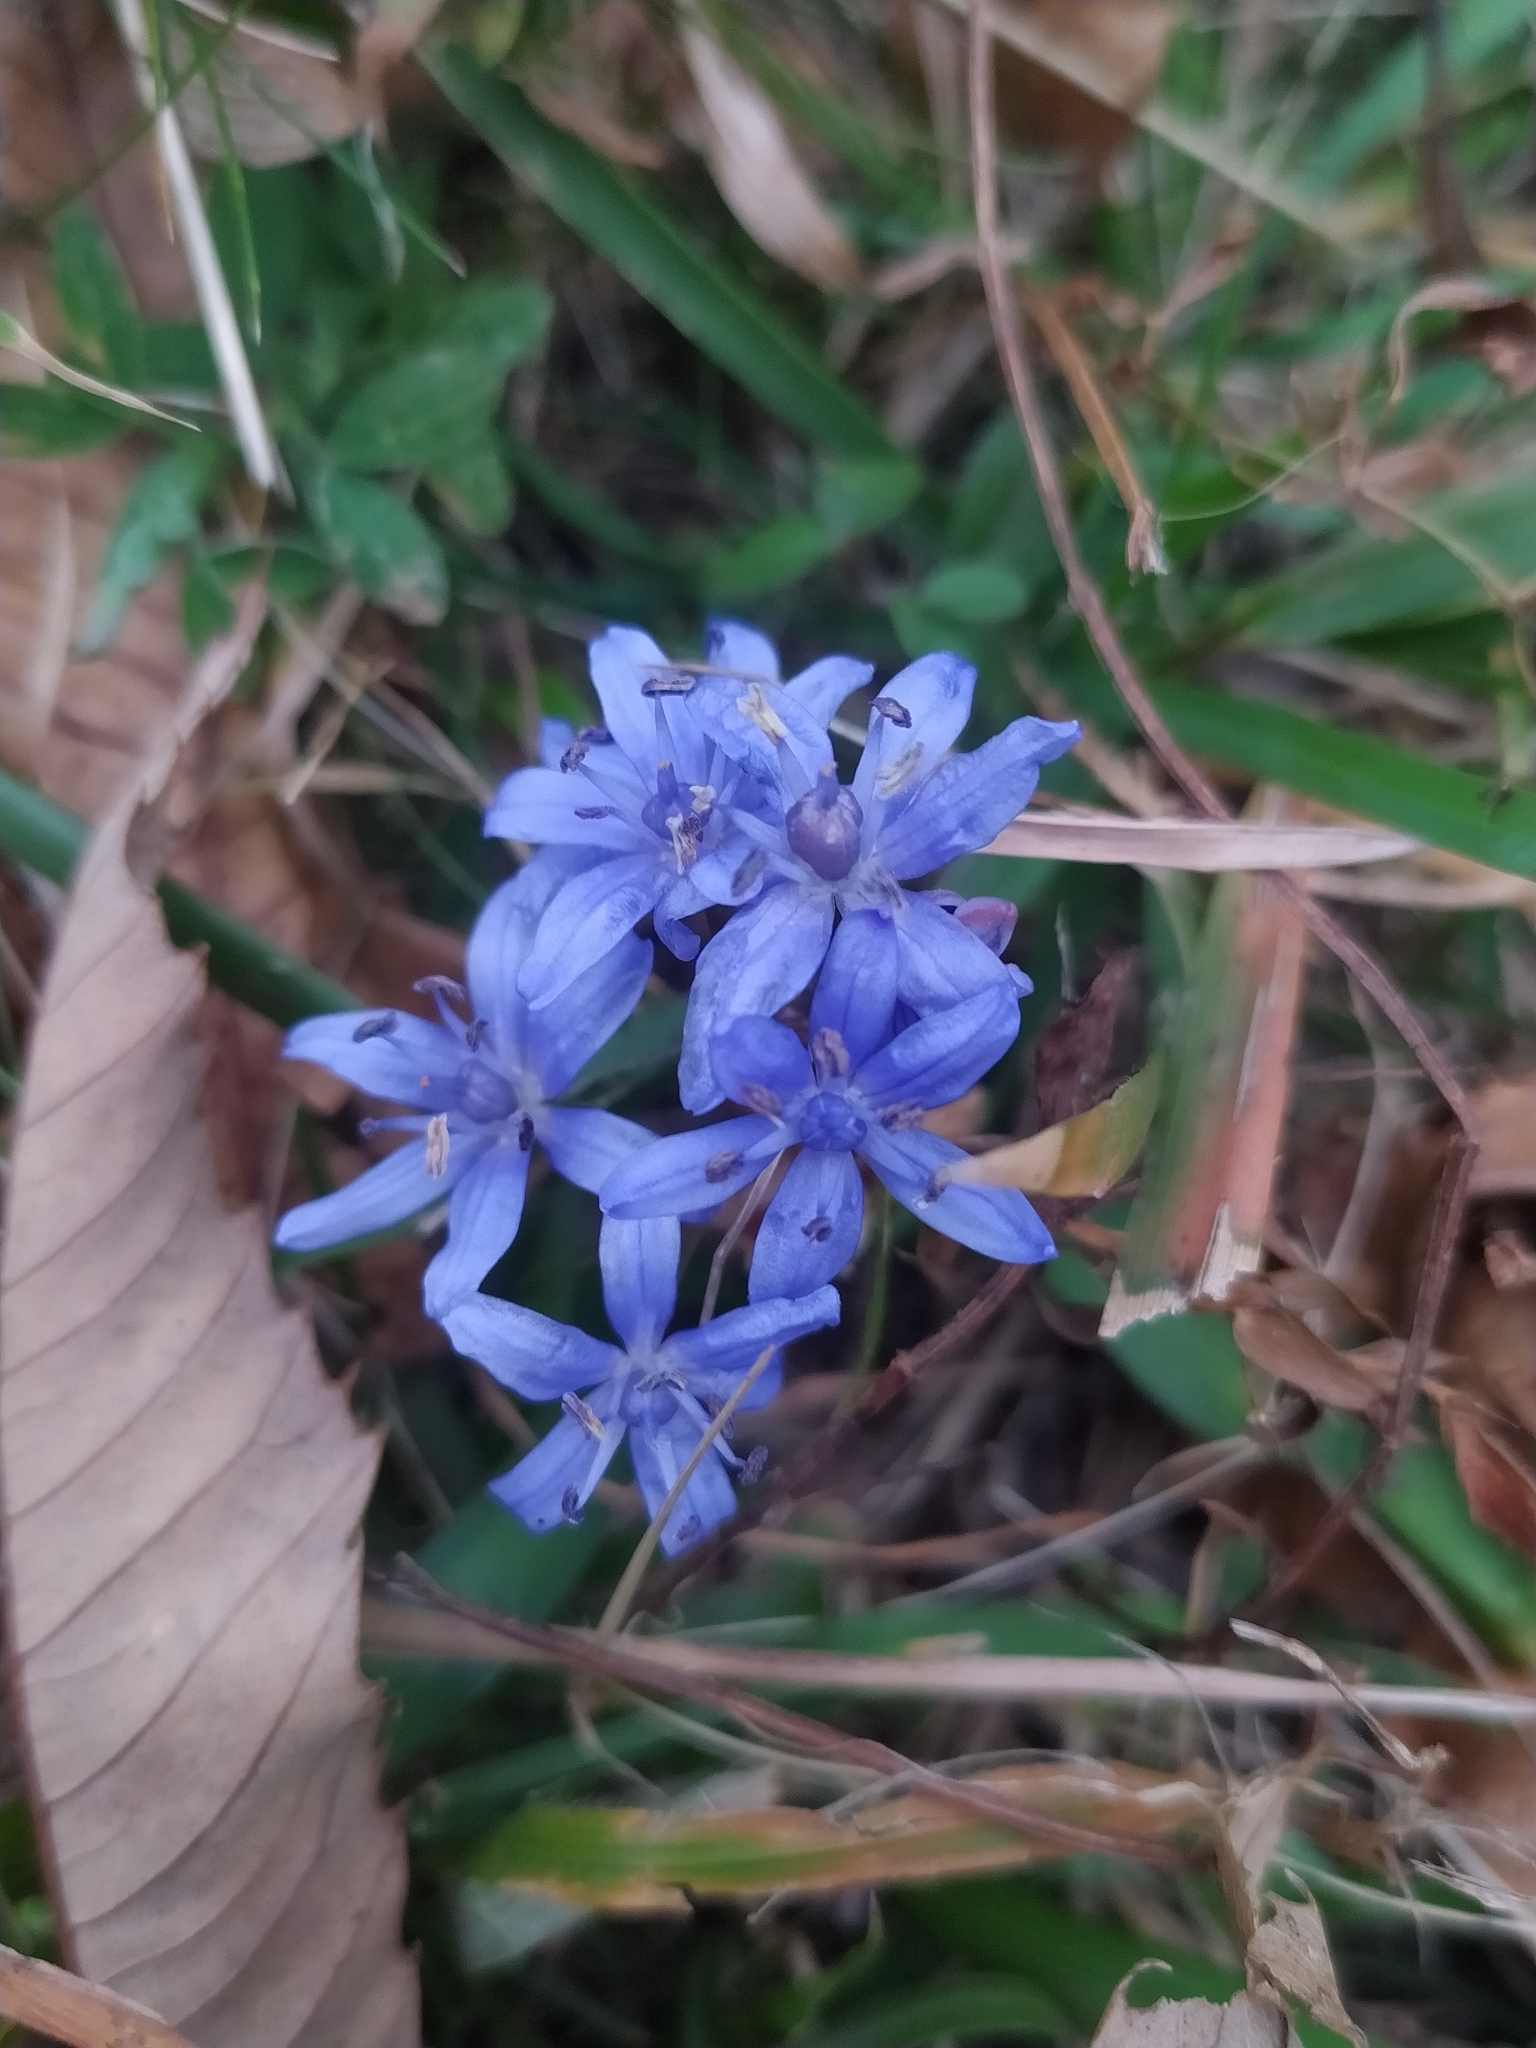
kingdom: Plantae
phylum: Tracheophyta
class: Liliopsida
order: Asparagales
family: Asparagaceae
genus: Scilla
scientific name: Scilla bifolia
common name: Alpine squill
